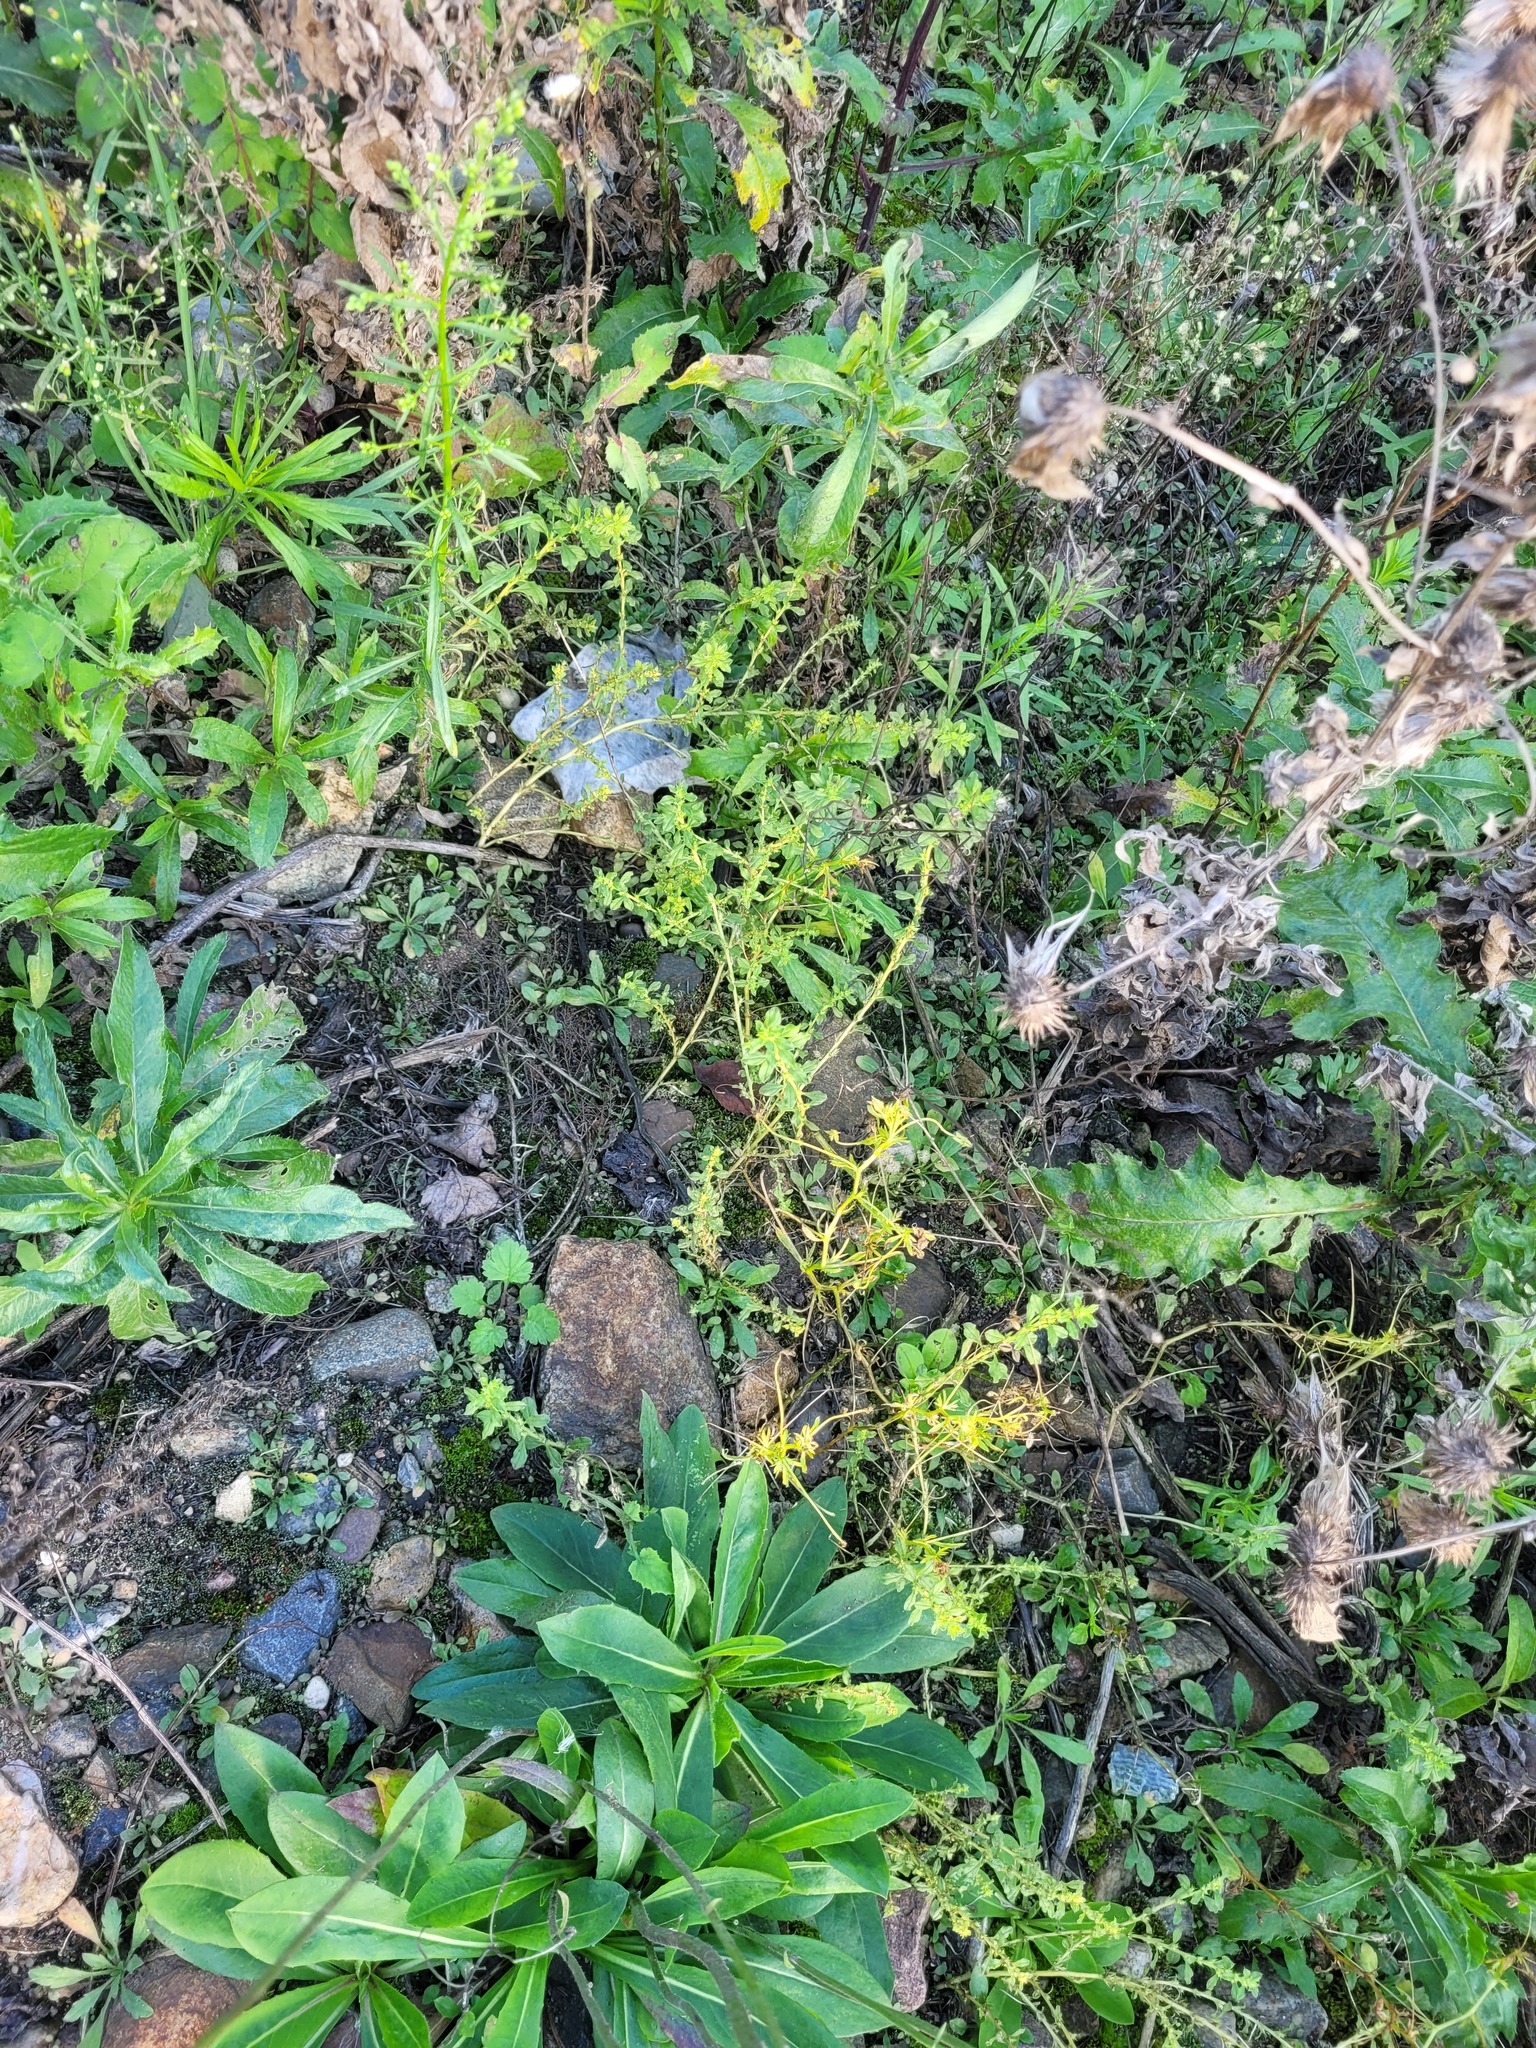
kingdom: Plantae
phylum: Tracheophyta
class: Magnoliopsida
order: Caryophyllales
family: Amaranthaceae
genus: Amaranthus
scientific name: Amaranthus albus
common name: White pigweed
